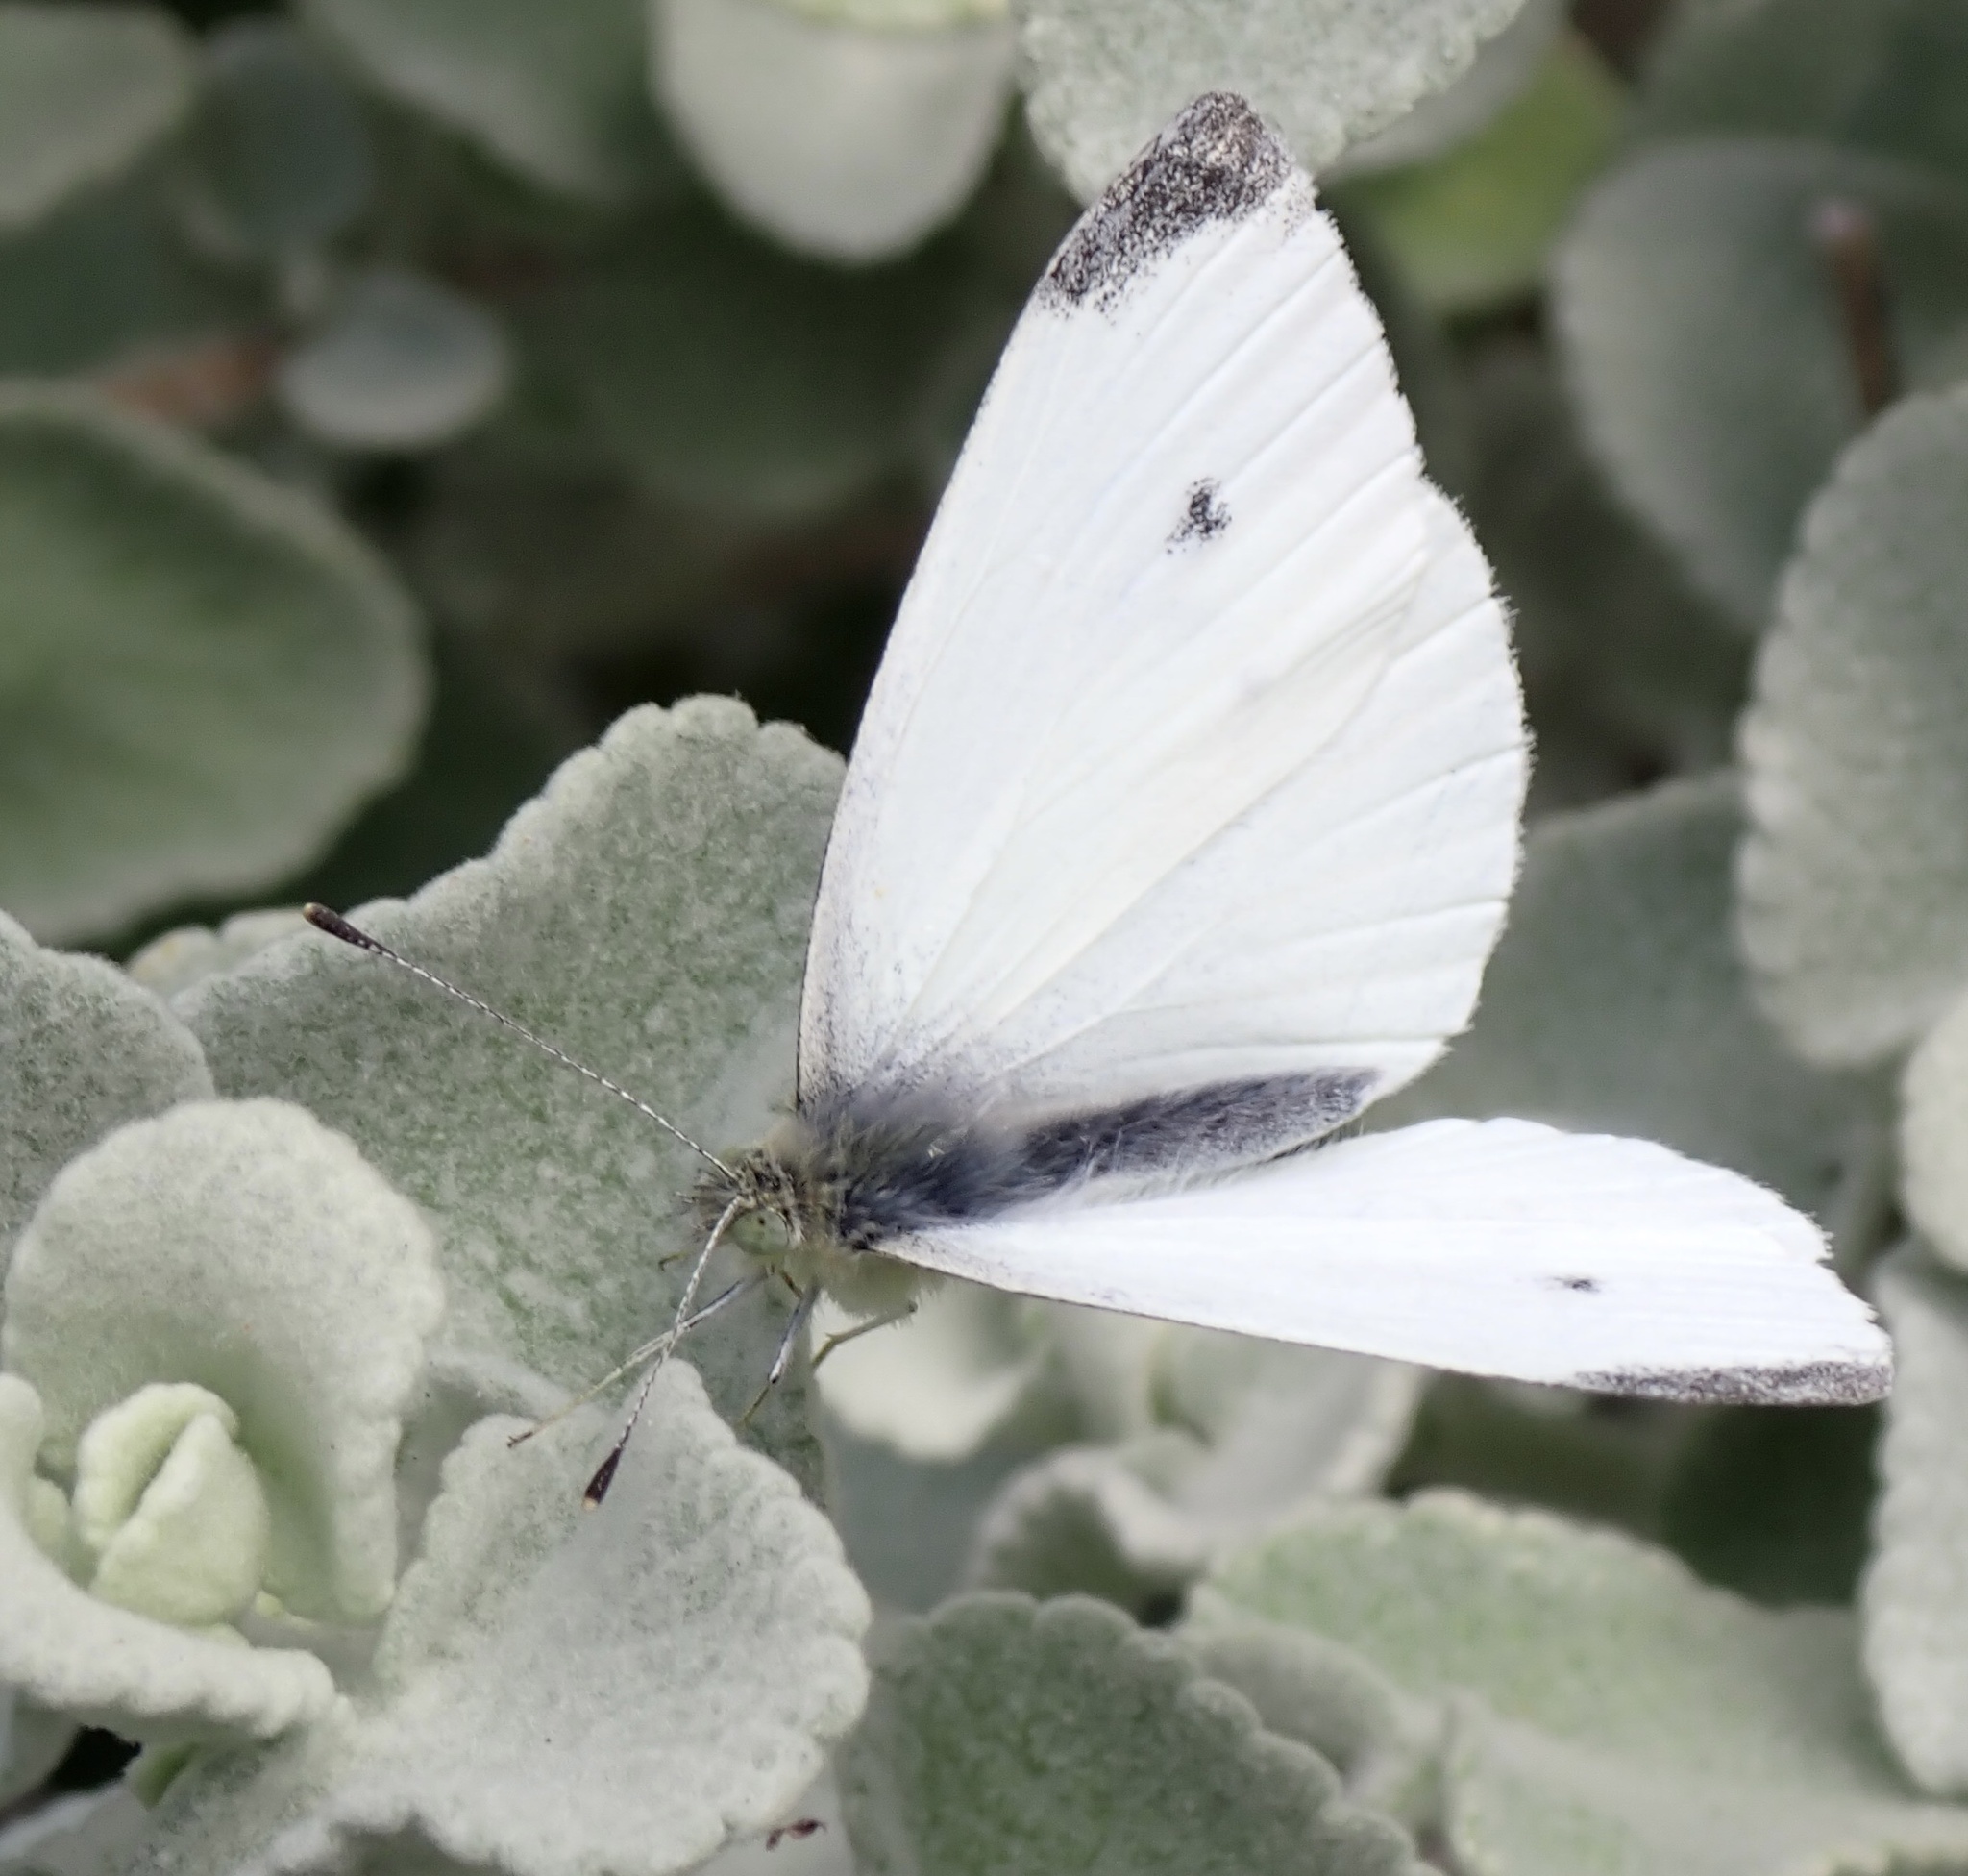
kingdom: Animalia
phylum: Arthropoda
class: Insecta
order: Lepidoptera
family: Pieridae
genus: Pieris
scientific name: Pieris rapae
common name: Small white
